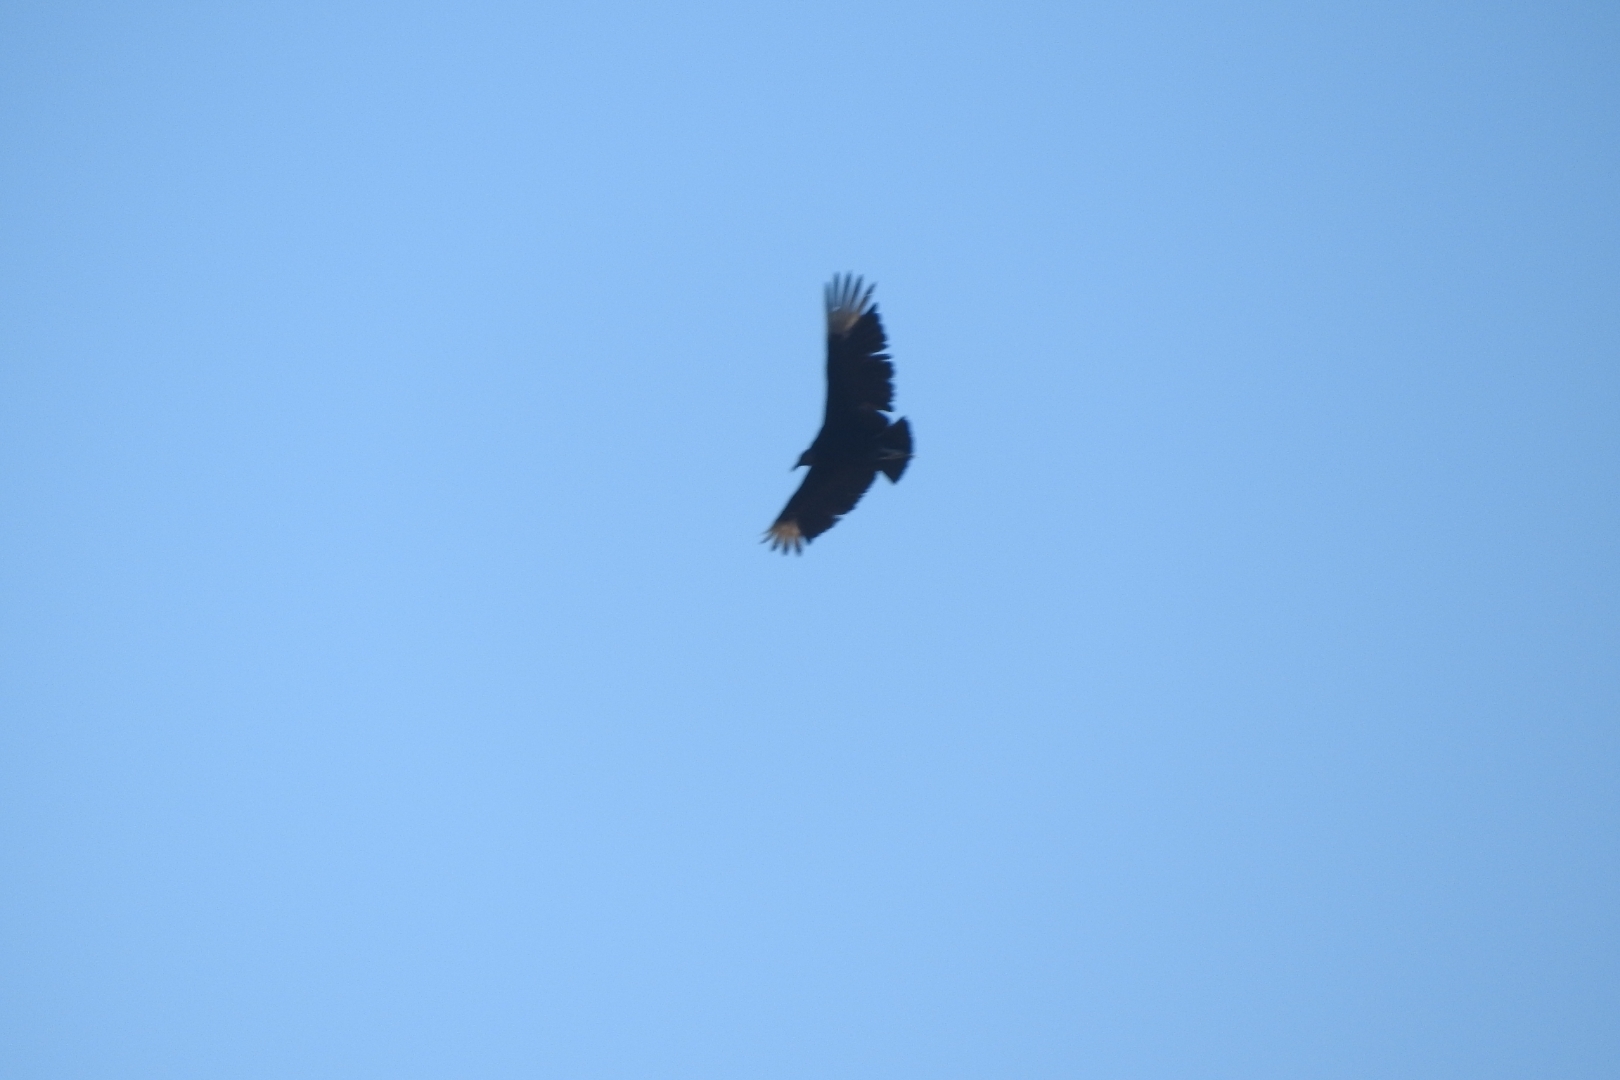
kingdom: Animalia
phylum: Chordata
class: Aves
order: Accipitriformes
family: Cathartidae
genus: Coragyps
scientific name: Coragyps atratus
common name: Black vulture
